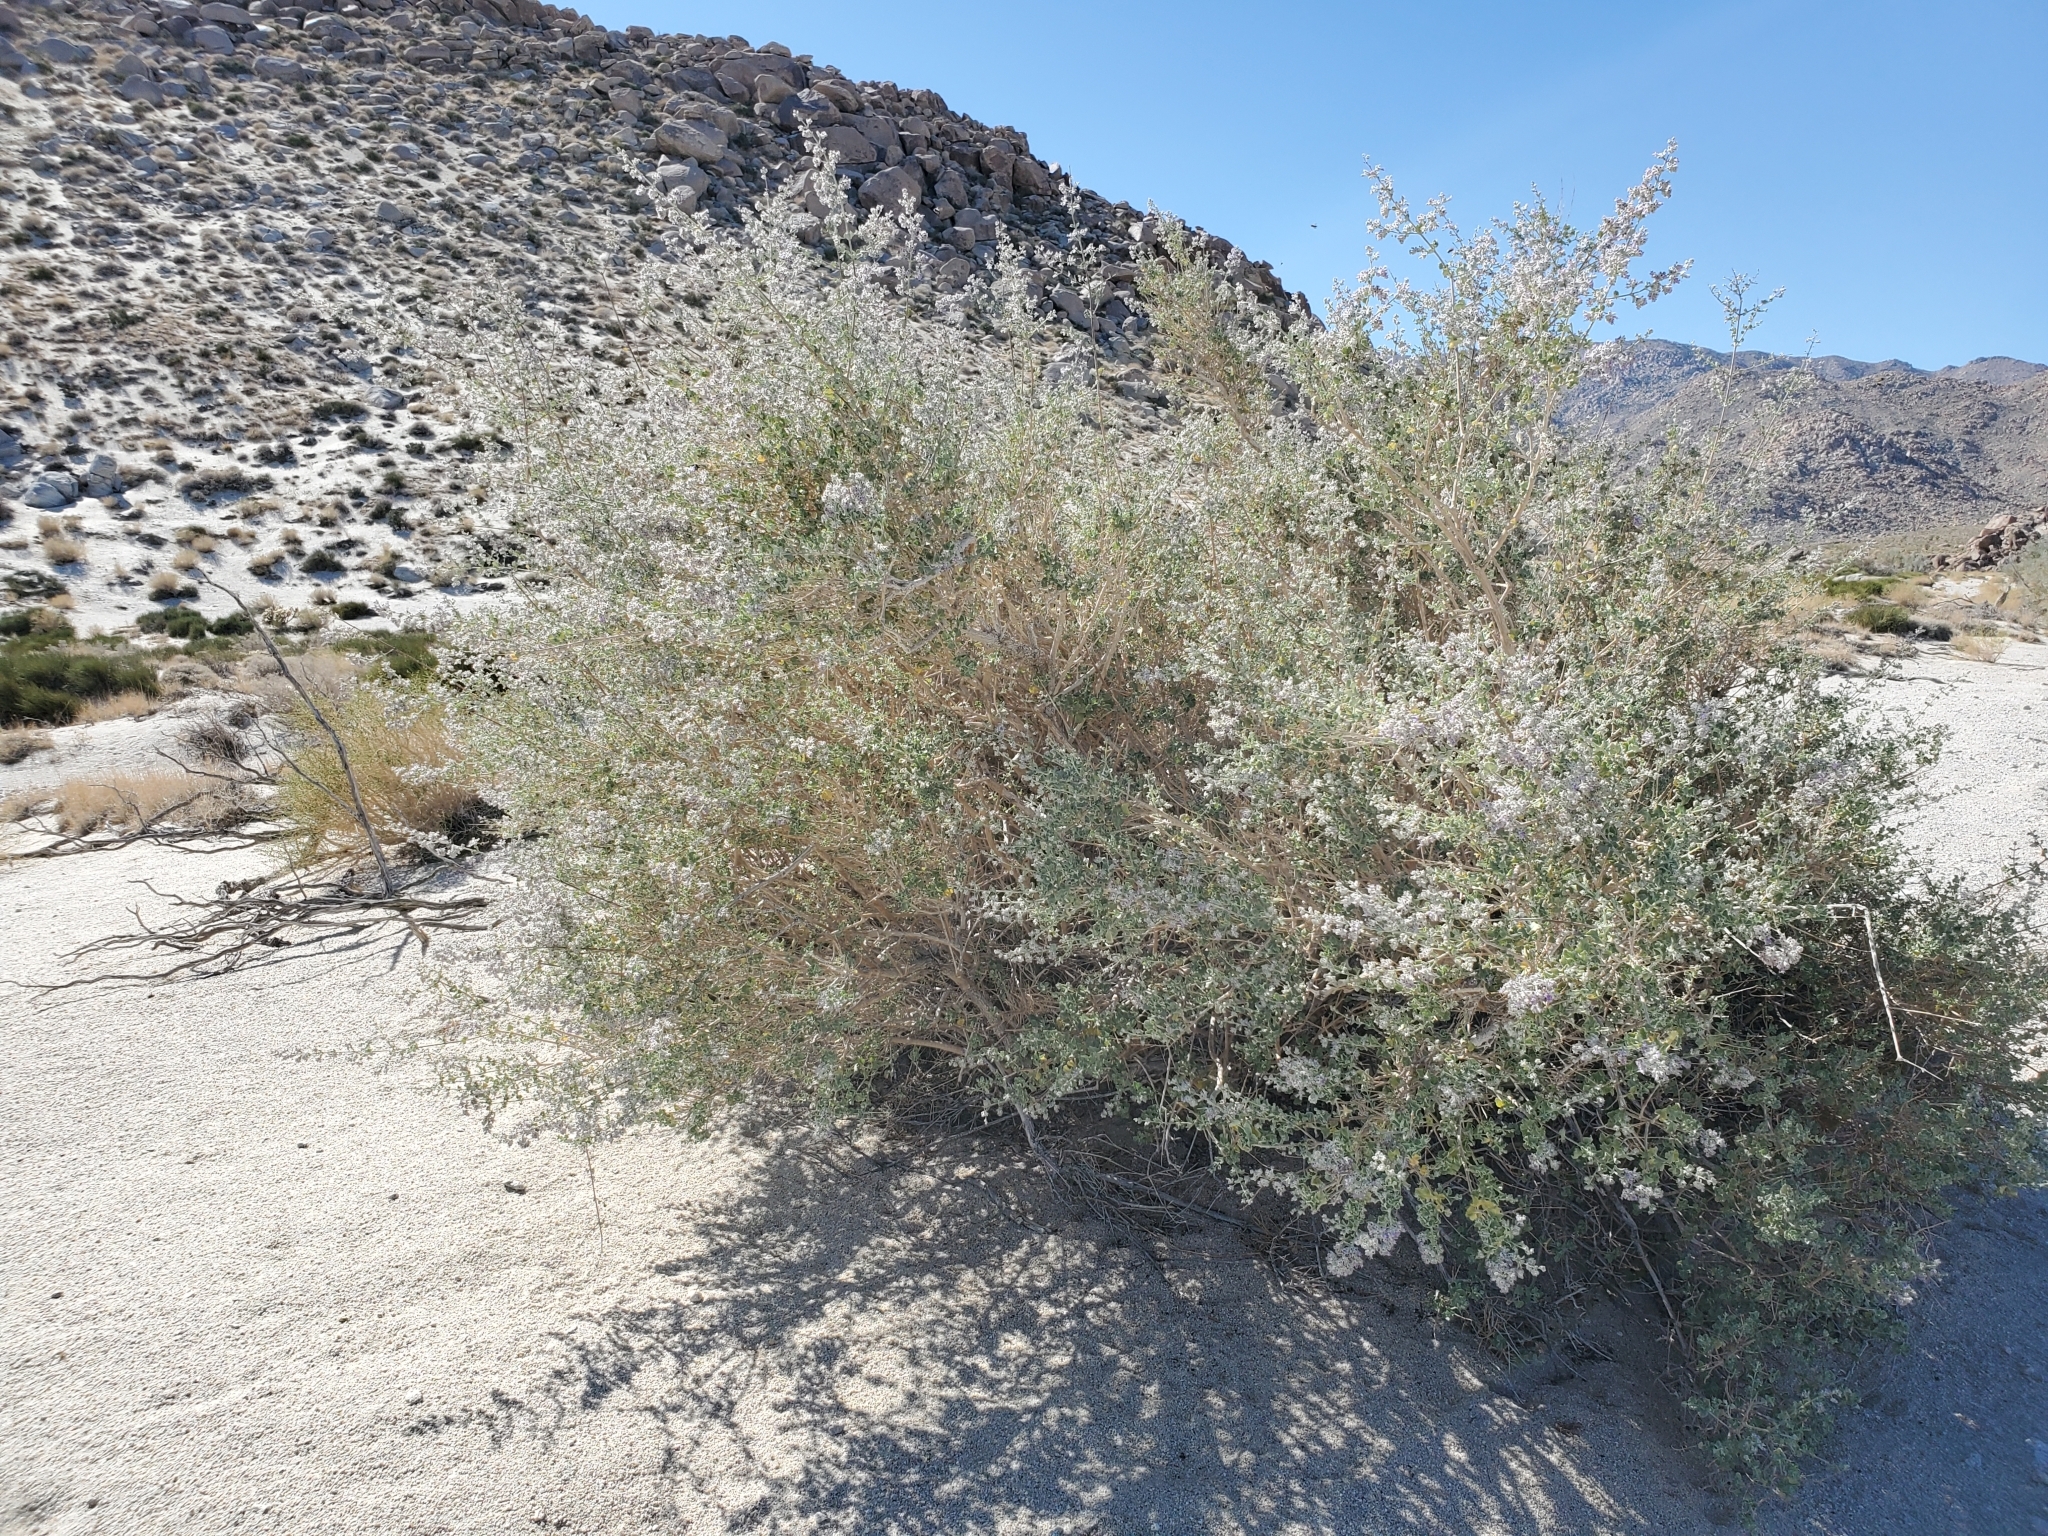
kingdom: Plantae
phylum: Tracheophyta
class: Magnoliopsida
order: Lamiales
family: Lamiaceae
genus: Condea
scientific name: Condea emoryi
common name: Chia
